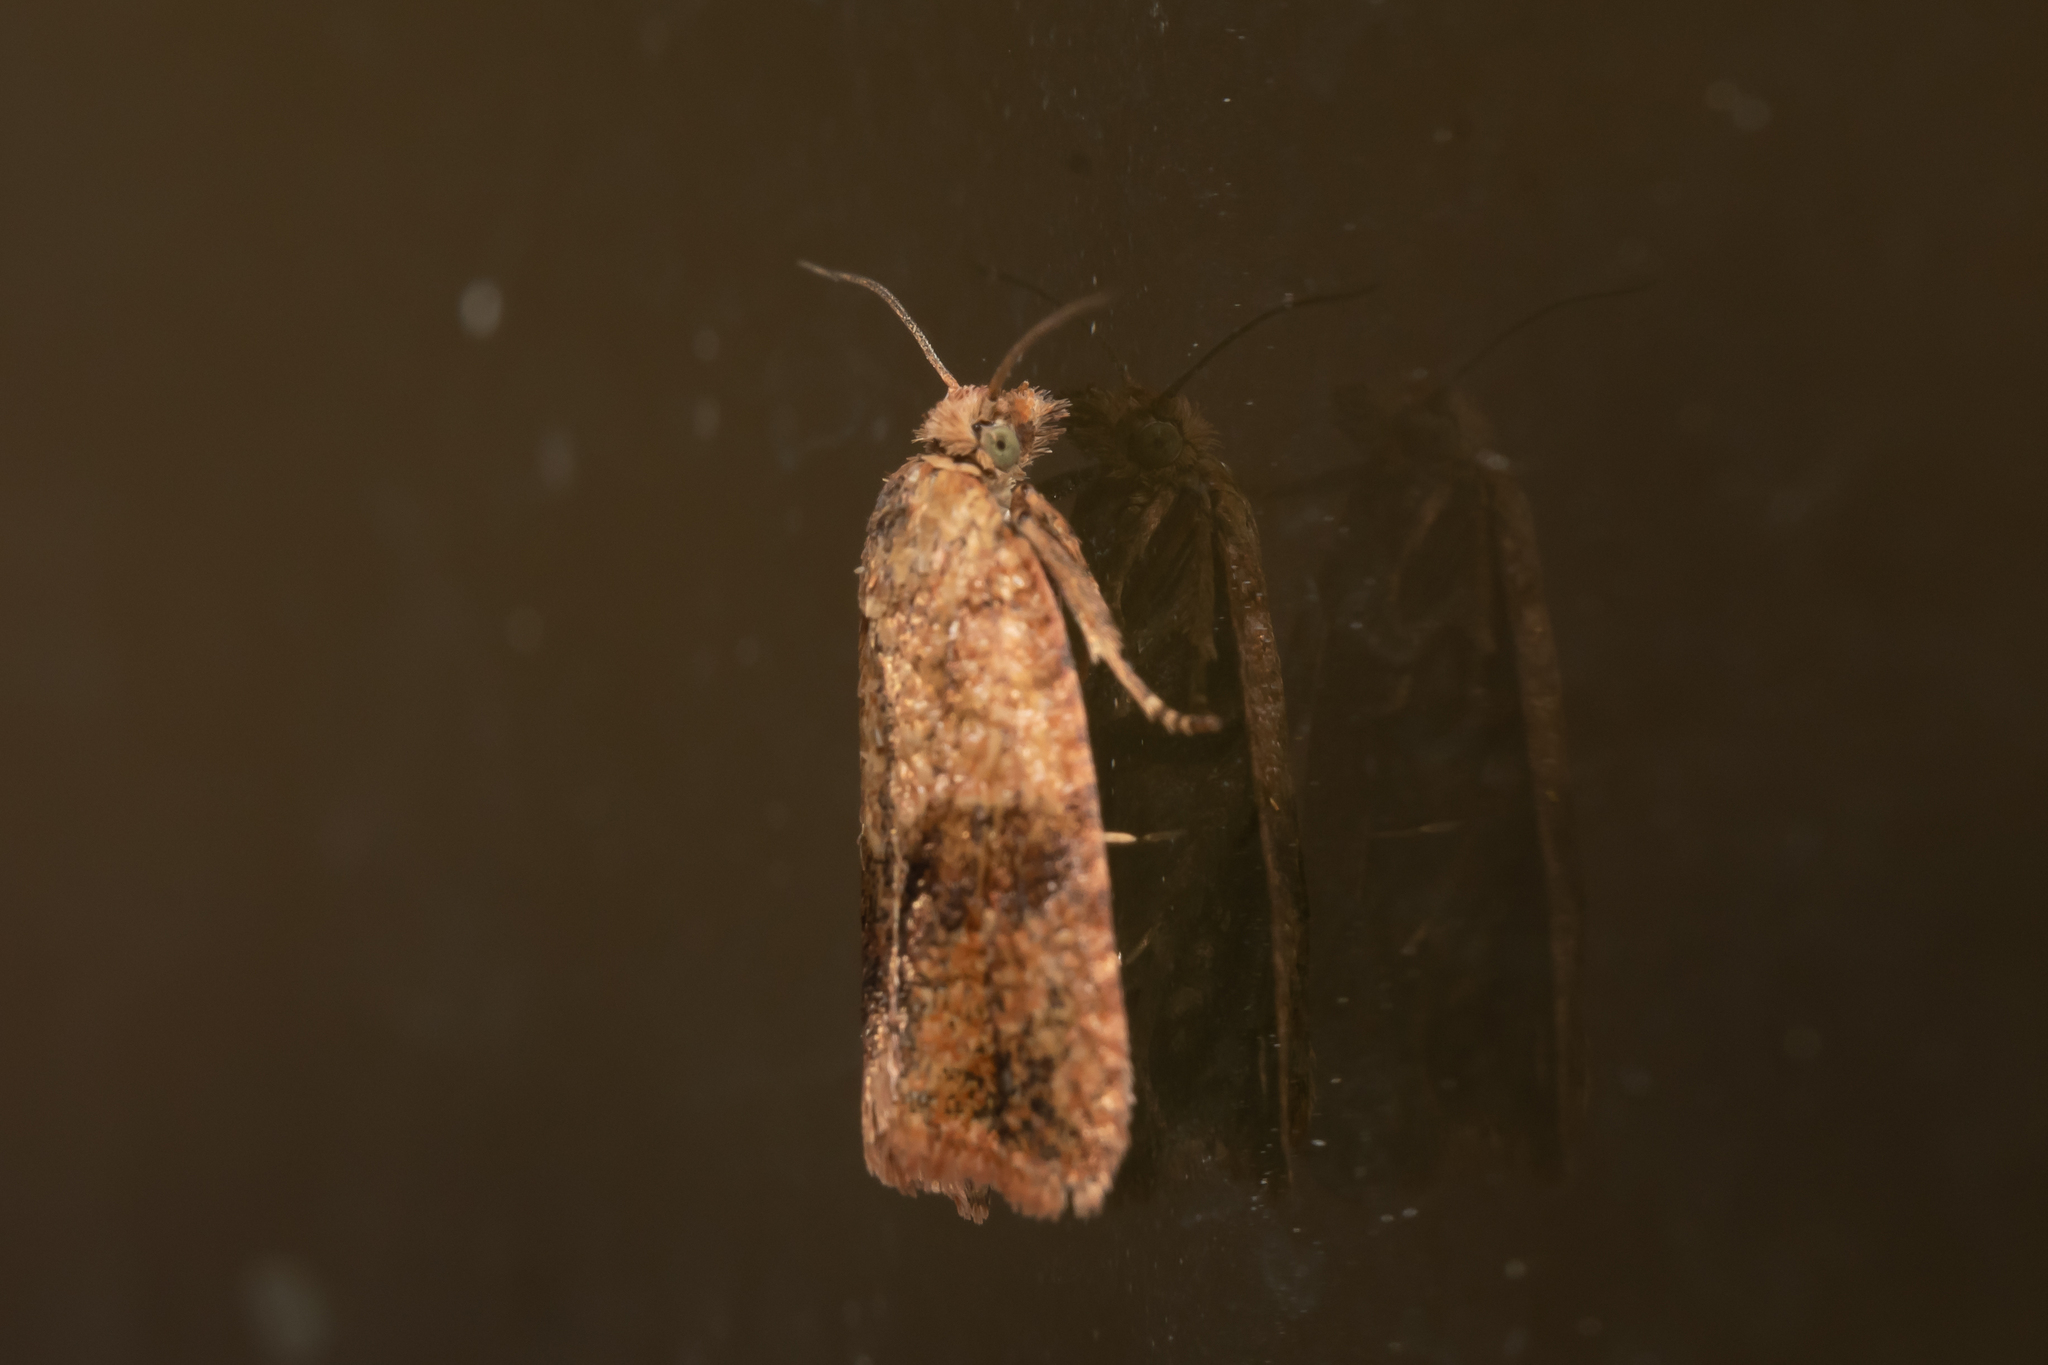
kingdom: Animalia
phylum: Arthropoda
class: Insecta
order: Lepidoptera
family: Tortricidae
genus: Celypha
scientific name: Celypha striana
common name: Barred marble
